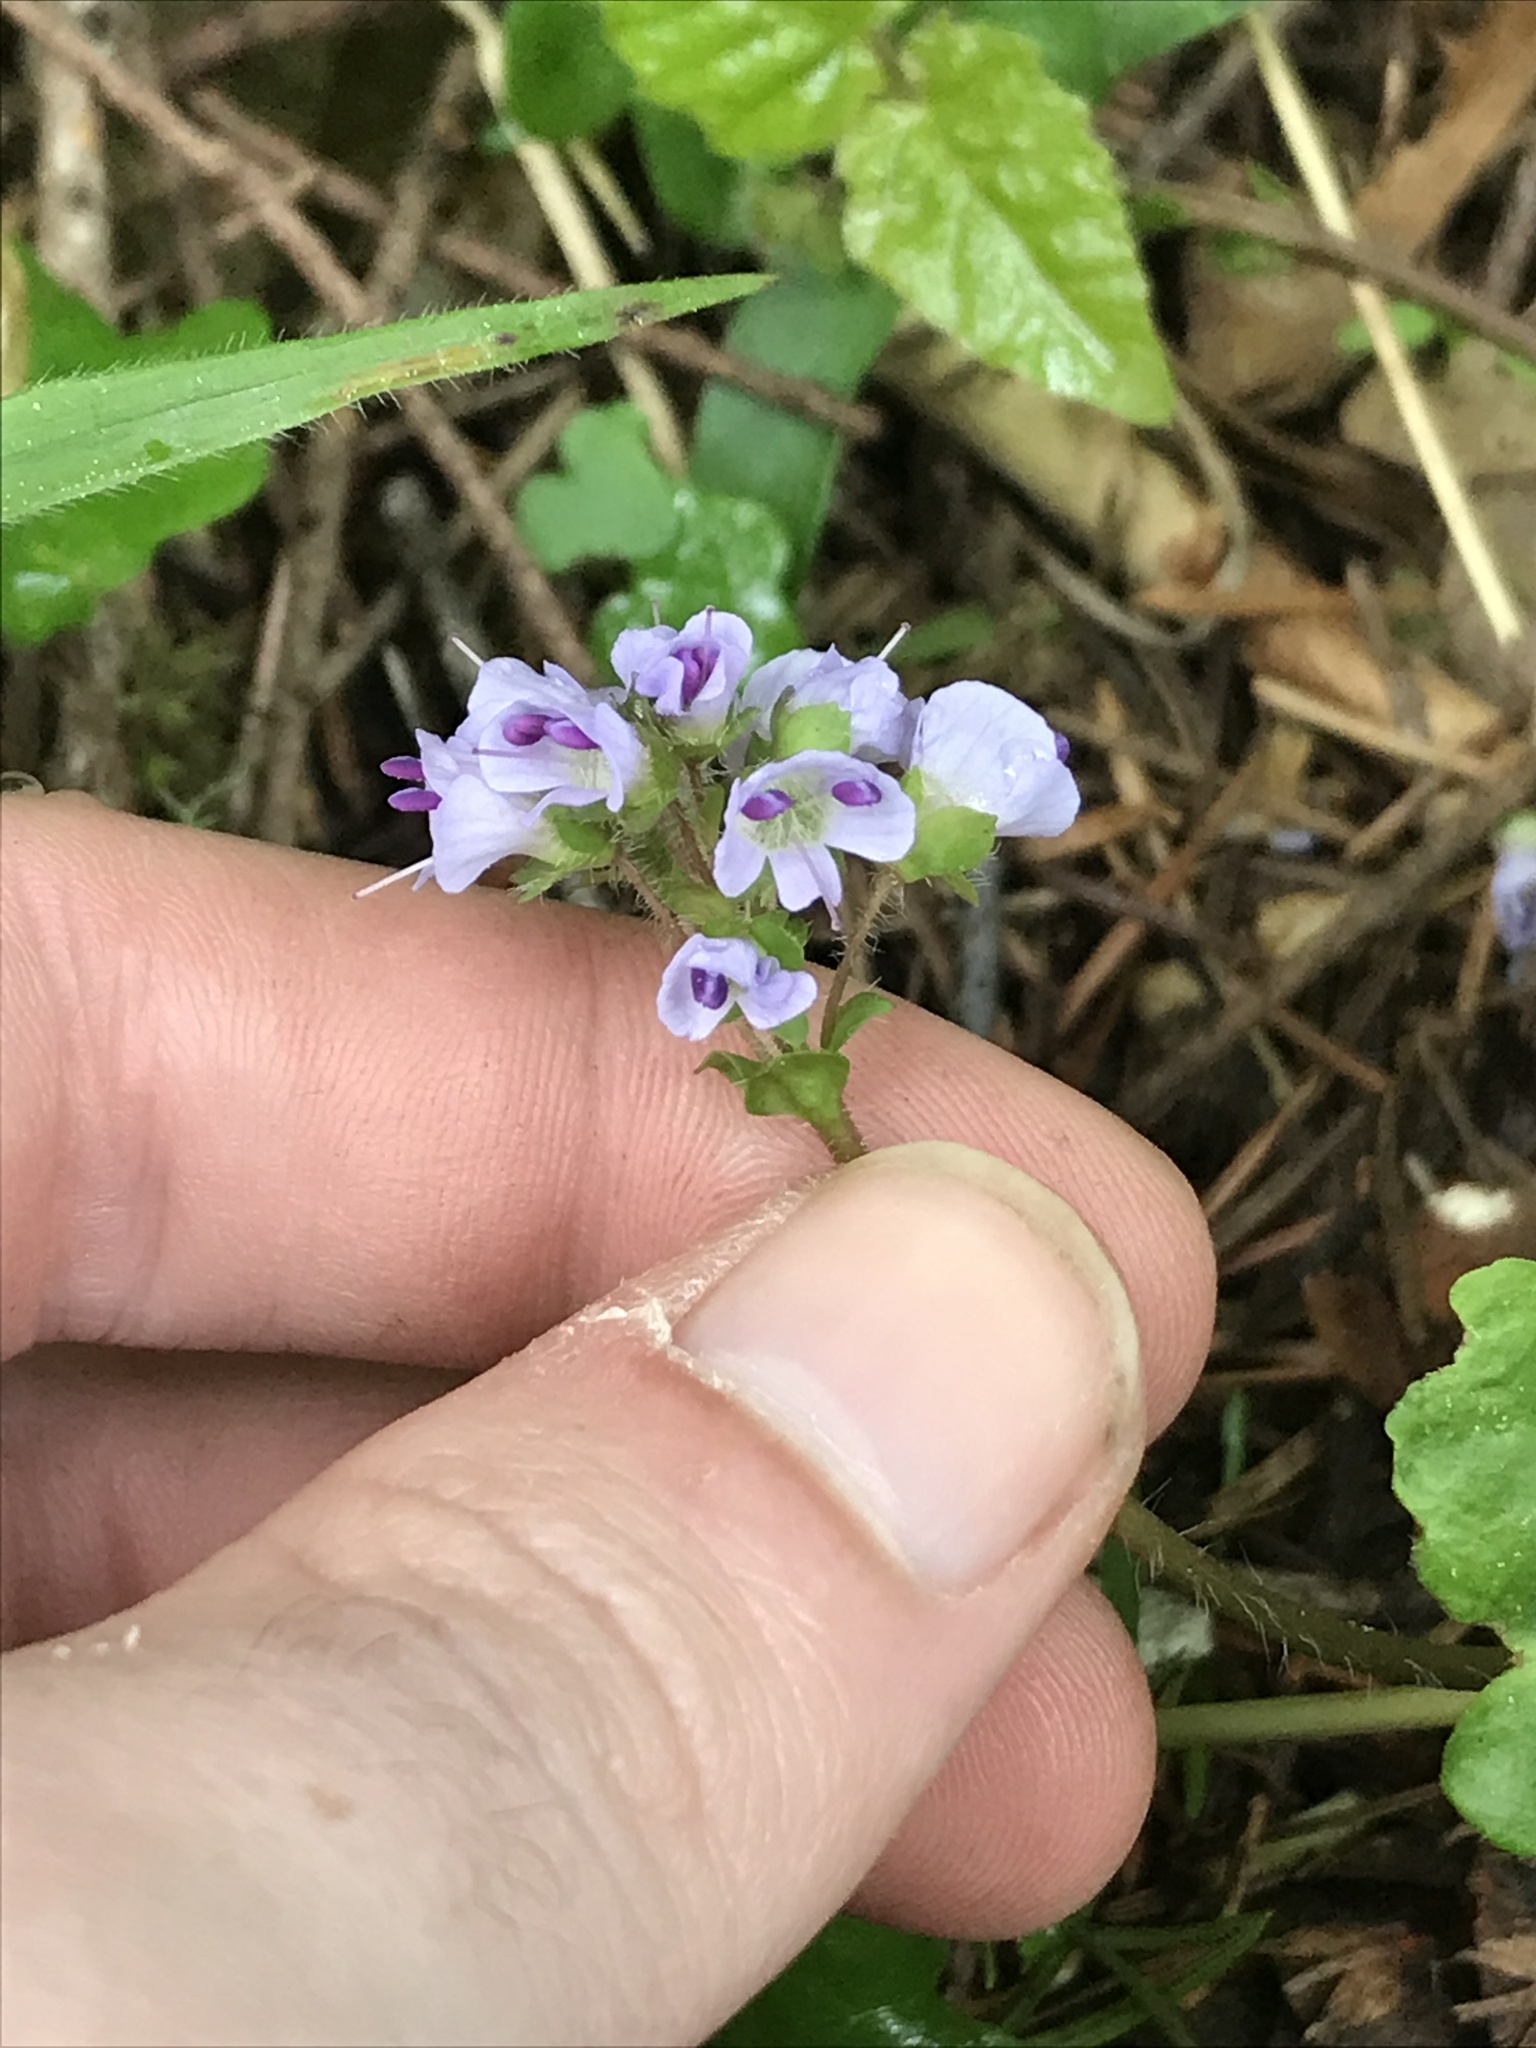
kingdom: Plantae
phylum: Tracheophyta
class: Magnoliopsida
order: Lamiales
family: Plantaginaceae
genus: Synthyris
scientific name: Synthyris reniformis
